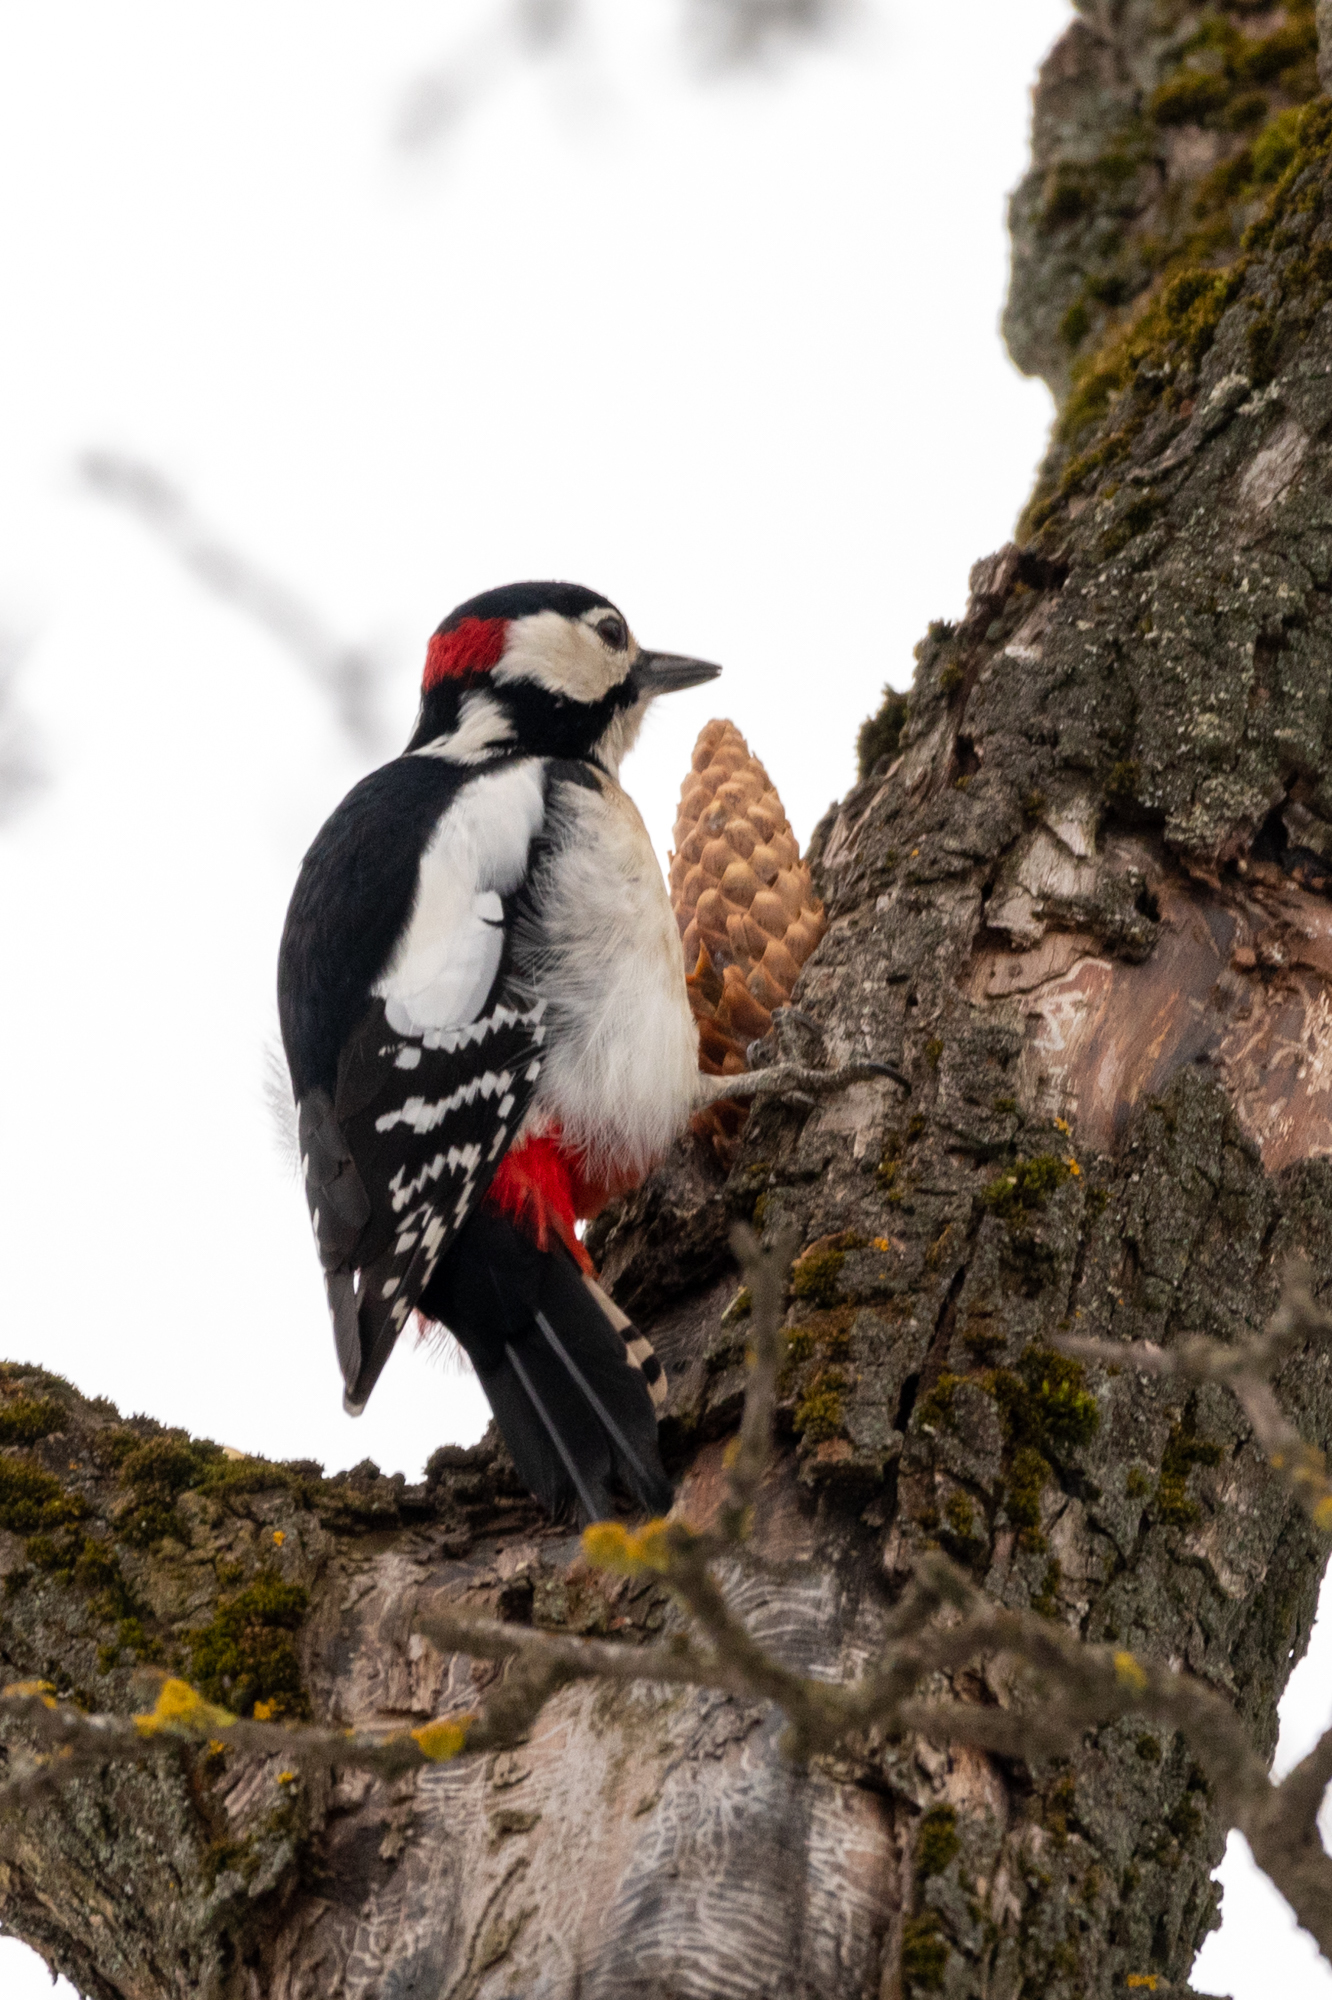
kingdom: Animalia
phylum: Chordata
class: Aves
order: Piciformes
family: Picidae
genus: Dendrocopos
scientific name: Dendrocopos major
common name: Great spotted woodpecker
